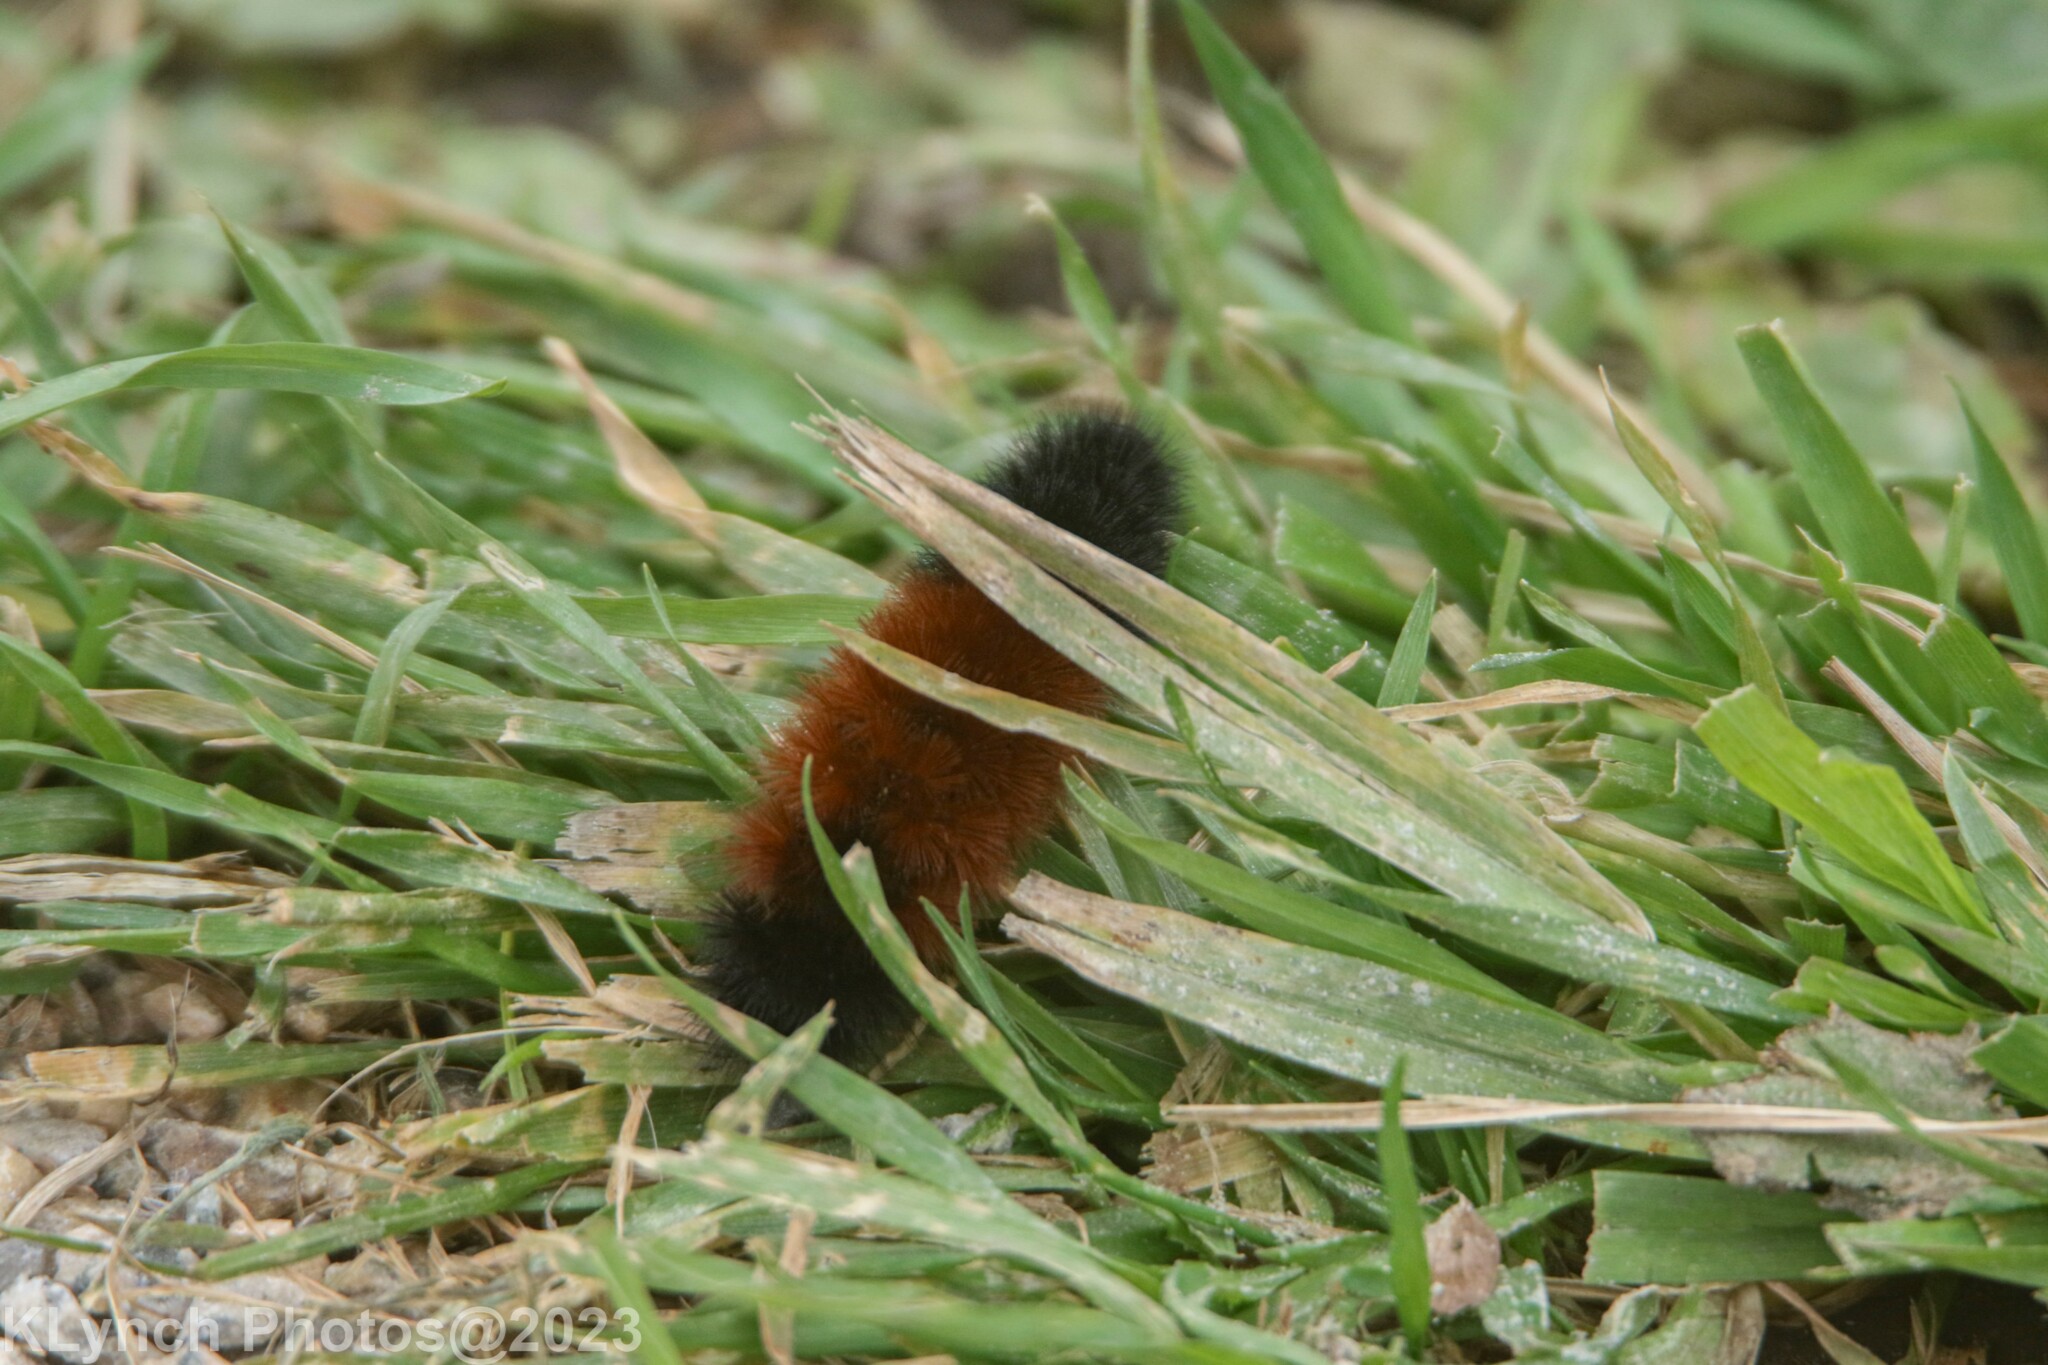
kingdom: Animalia
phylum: Arthropoda
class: Insecta
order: Lepidoptera
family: Erebidae
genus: Pyrrharctia
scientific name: Pyrrharctia isabella
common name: Isabella tiger moth
